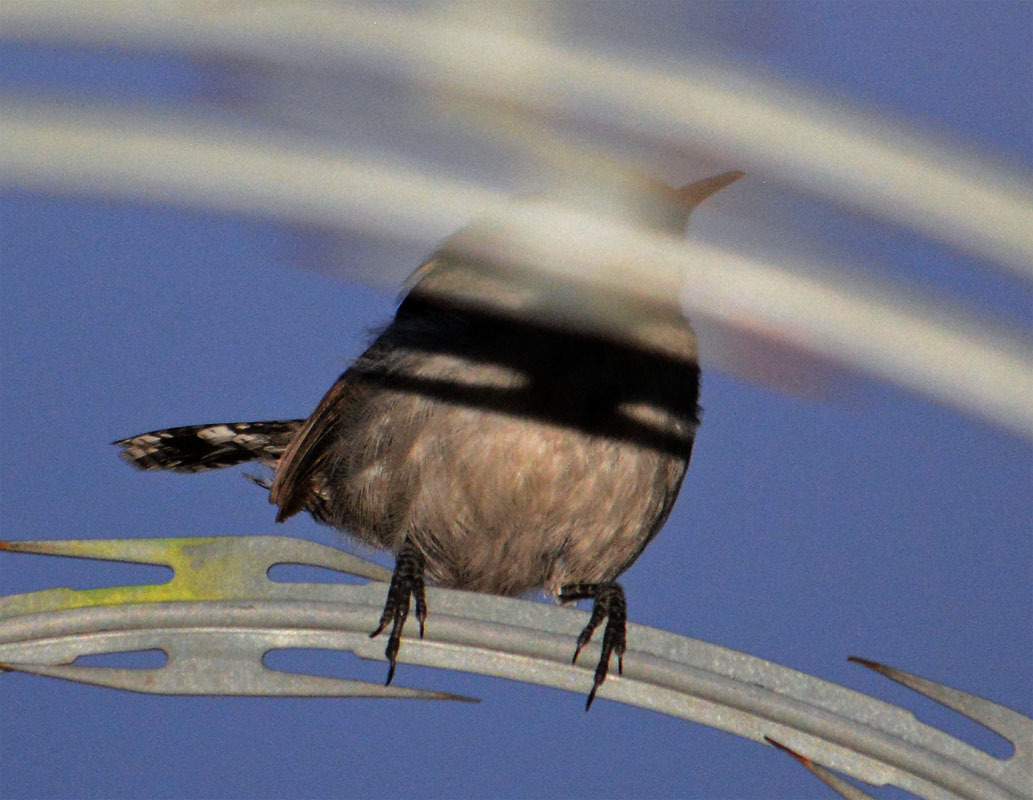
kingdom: Animalia
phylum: Chordata
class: Aves
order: Passeriformes
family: Troglodytidae
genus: Thryomanes
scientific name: Thryomanes bewickii
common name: Bewick's wren
